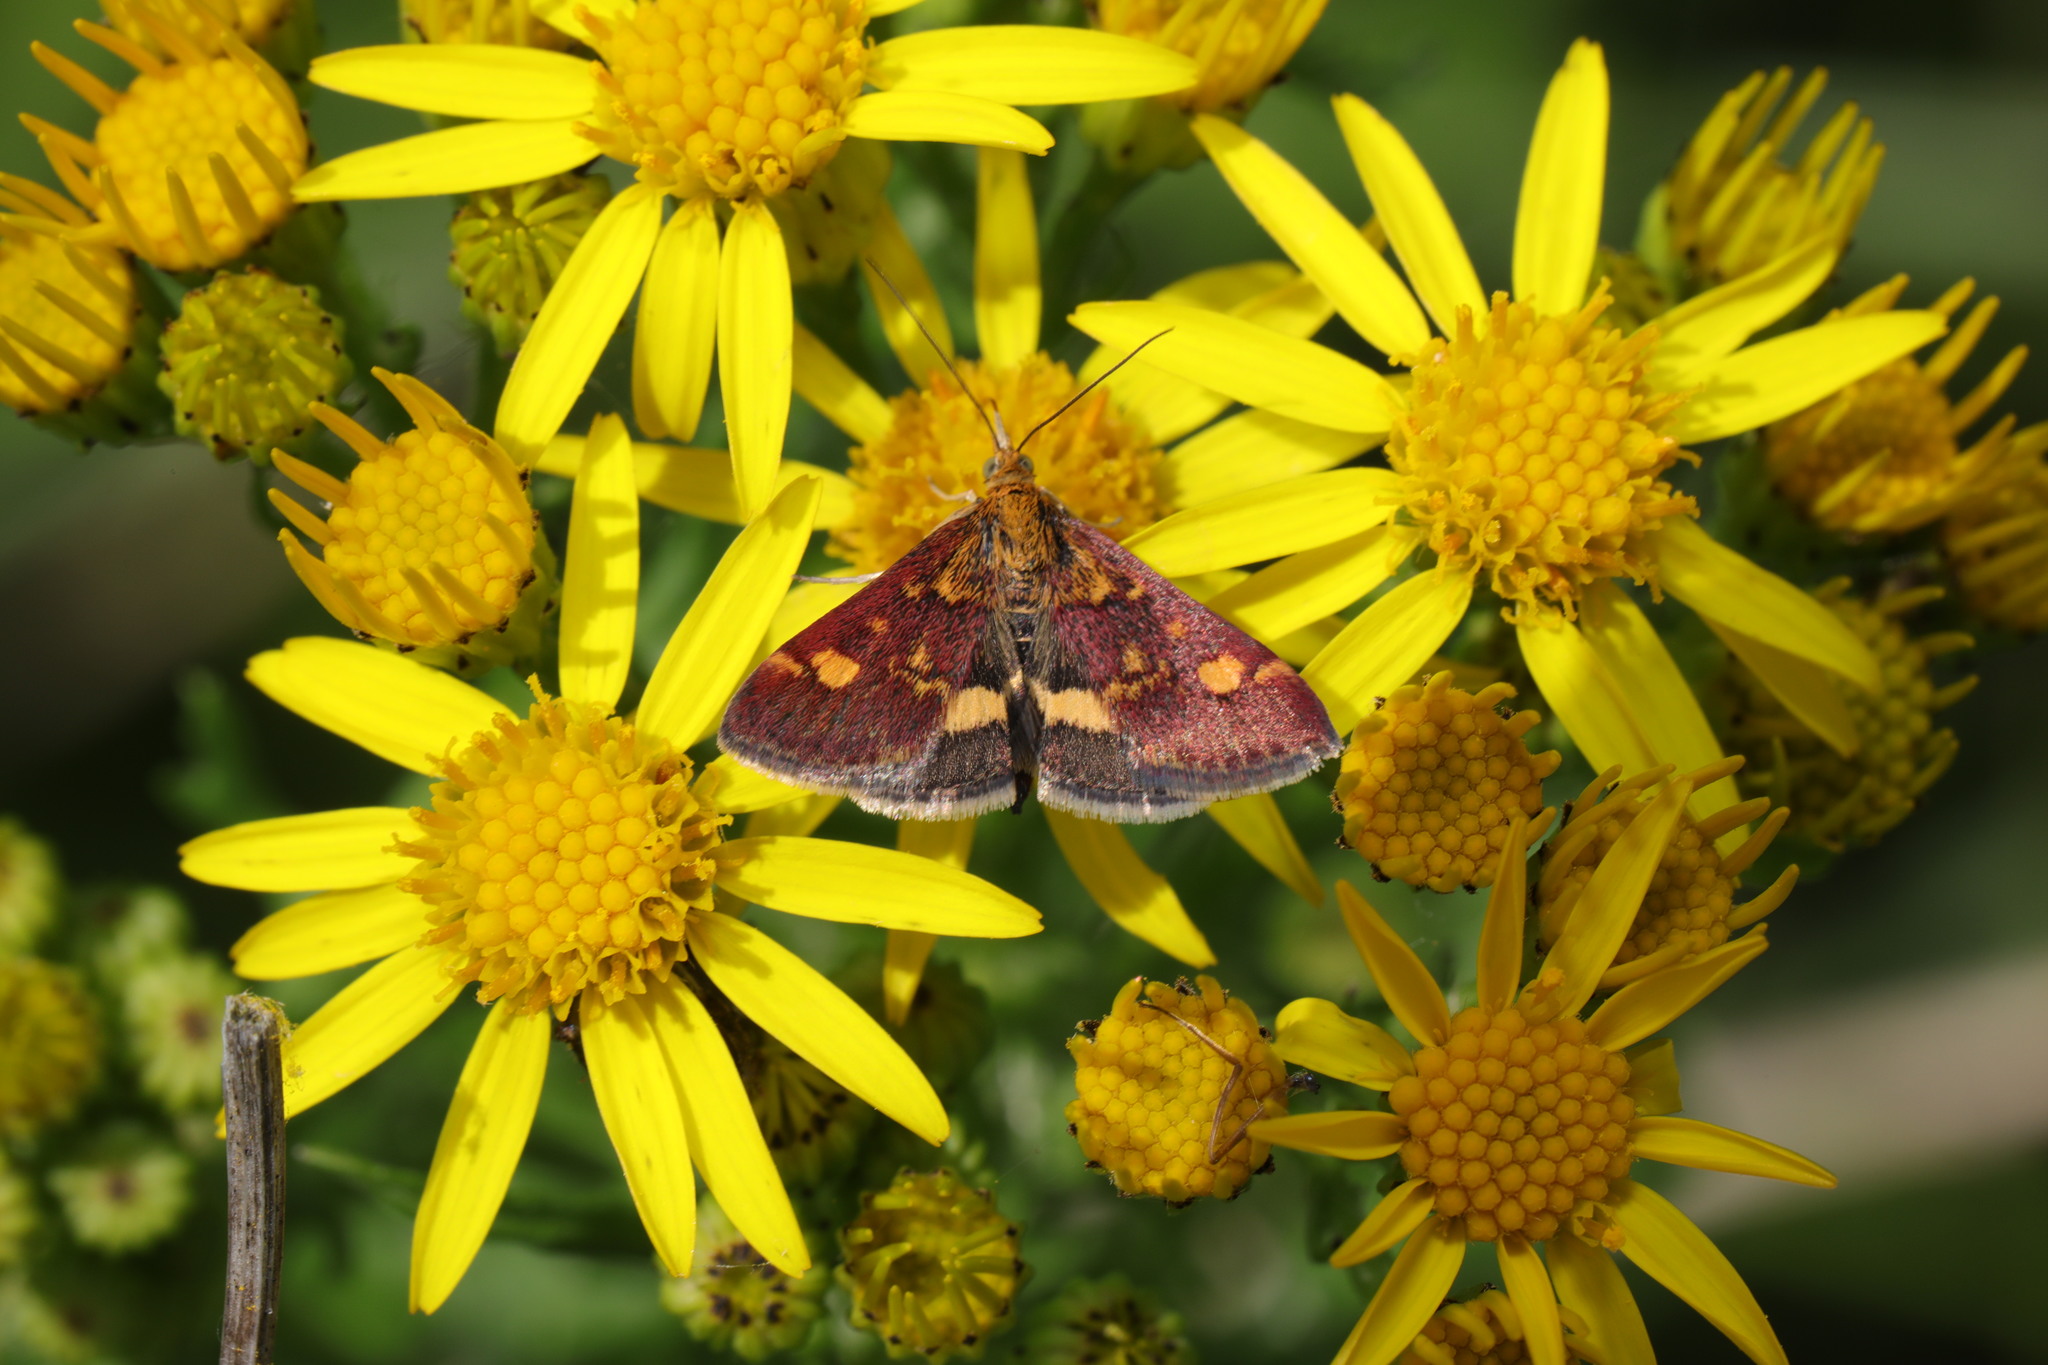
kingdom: Animalia
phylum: Arthropoda
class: Insecta
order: Lepidoptera
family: Crambidae
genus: Pyrausta
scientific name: Pyrausta aurata
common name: Small purple & gold
